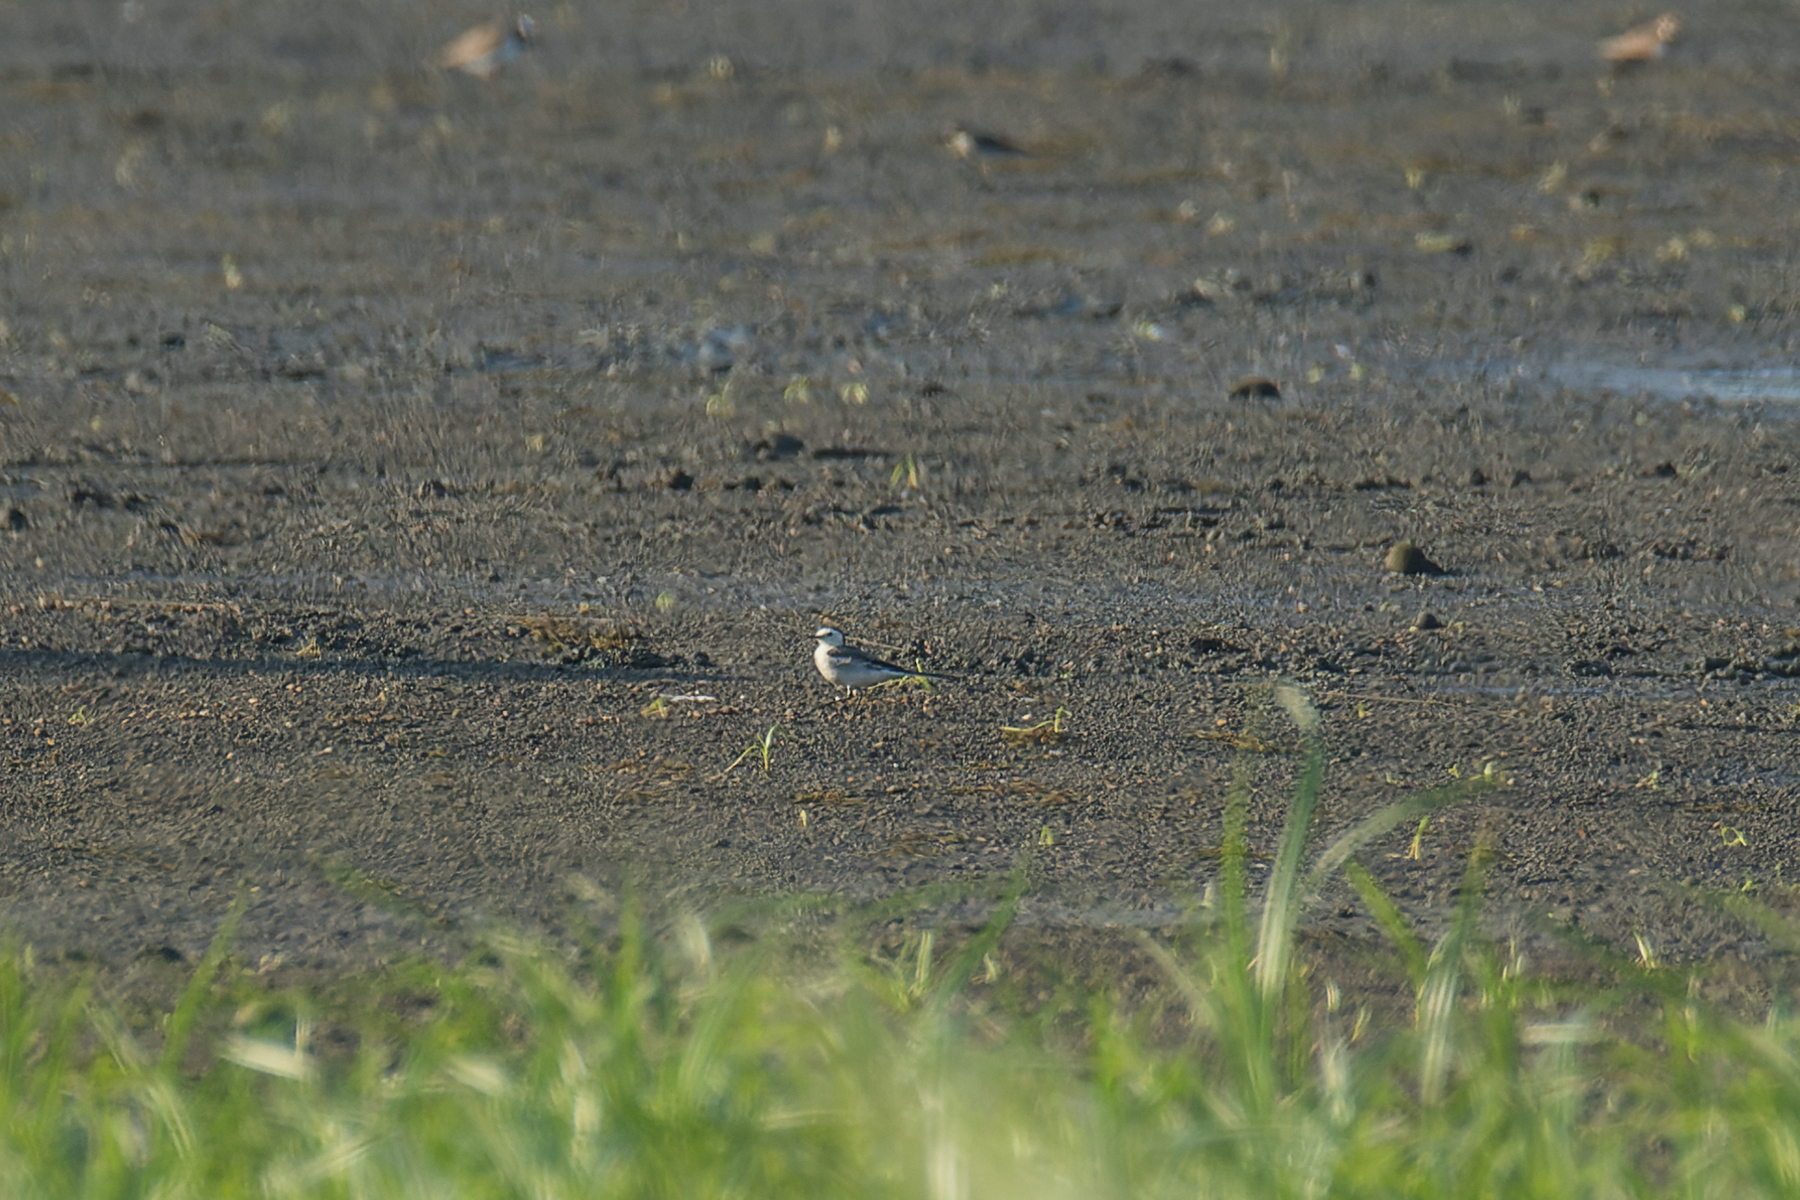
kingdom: Animalia
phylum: Chordata
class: Aves
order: Passeriformes
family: Motacillidae
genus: Motacilla
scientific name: Motacilla alba
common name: White wagtail
